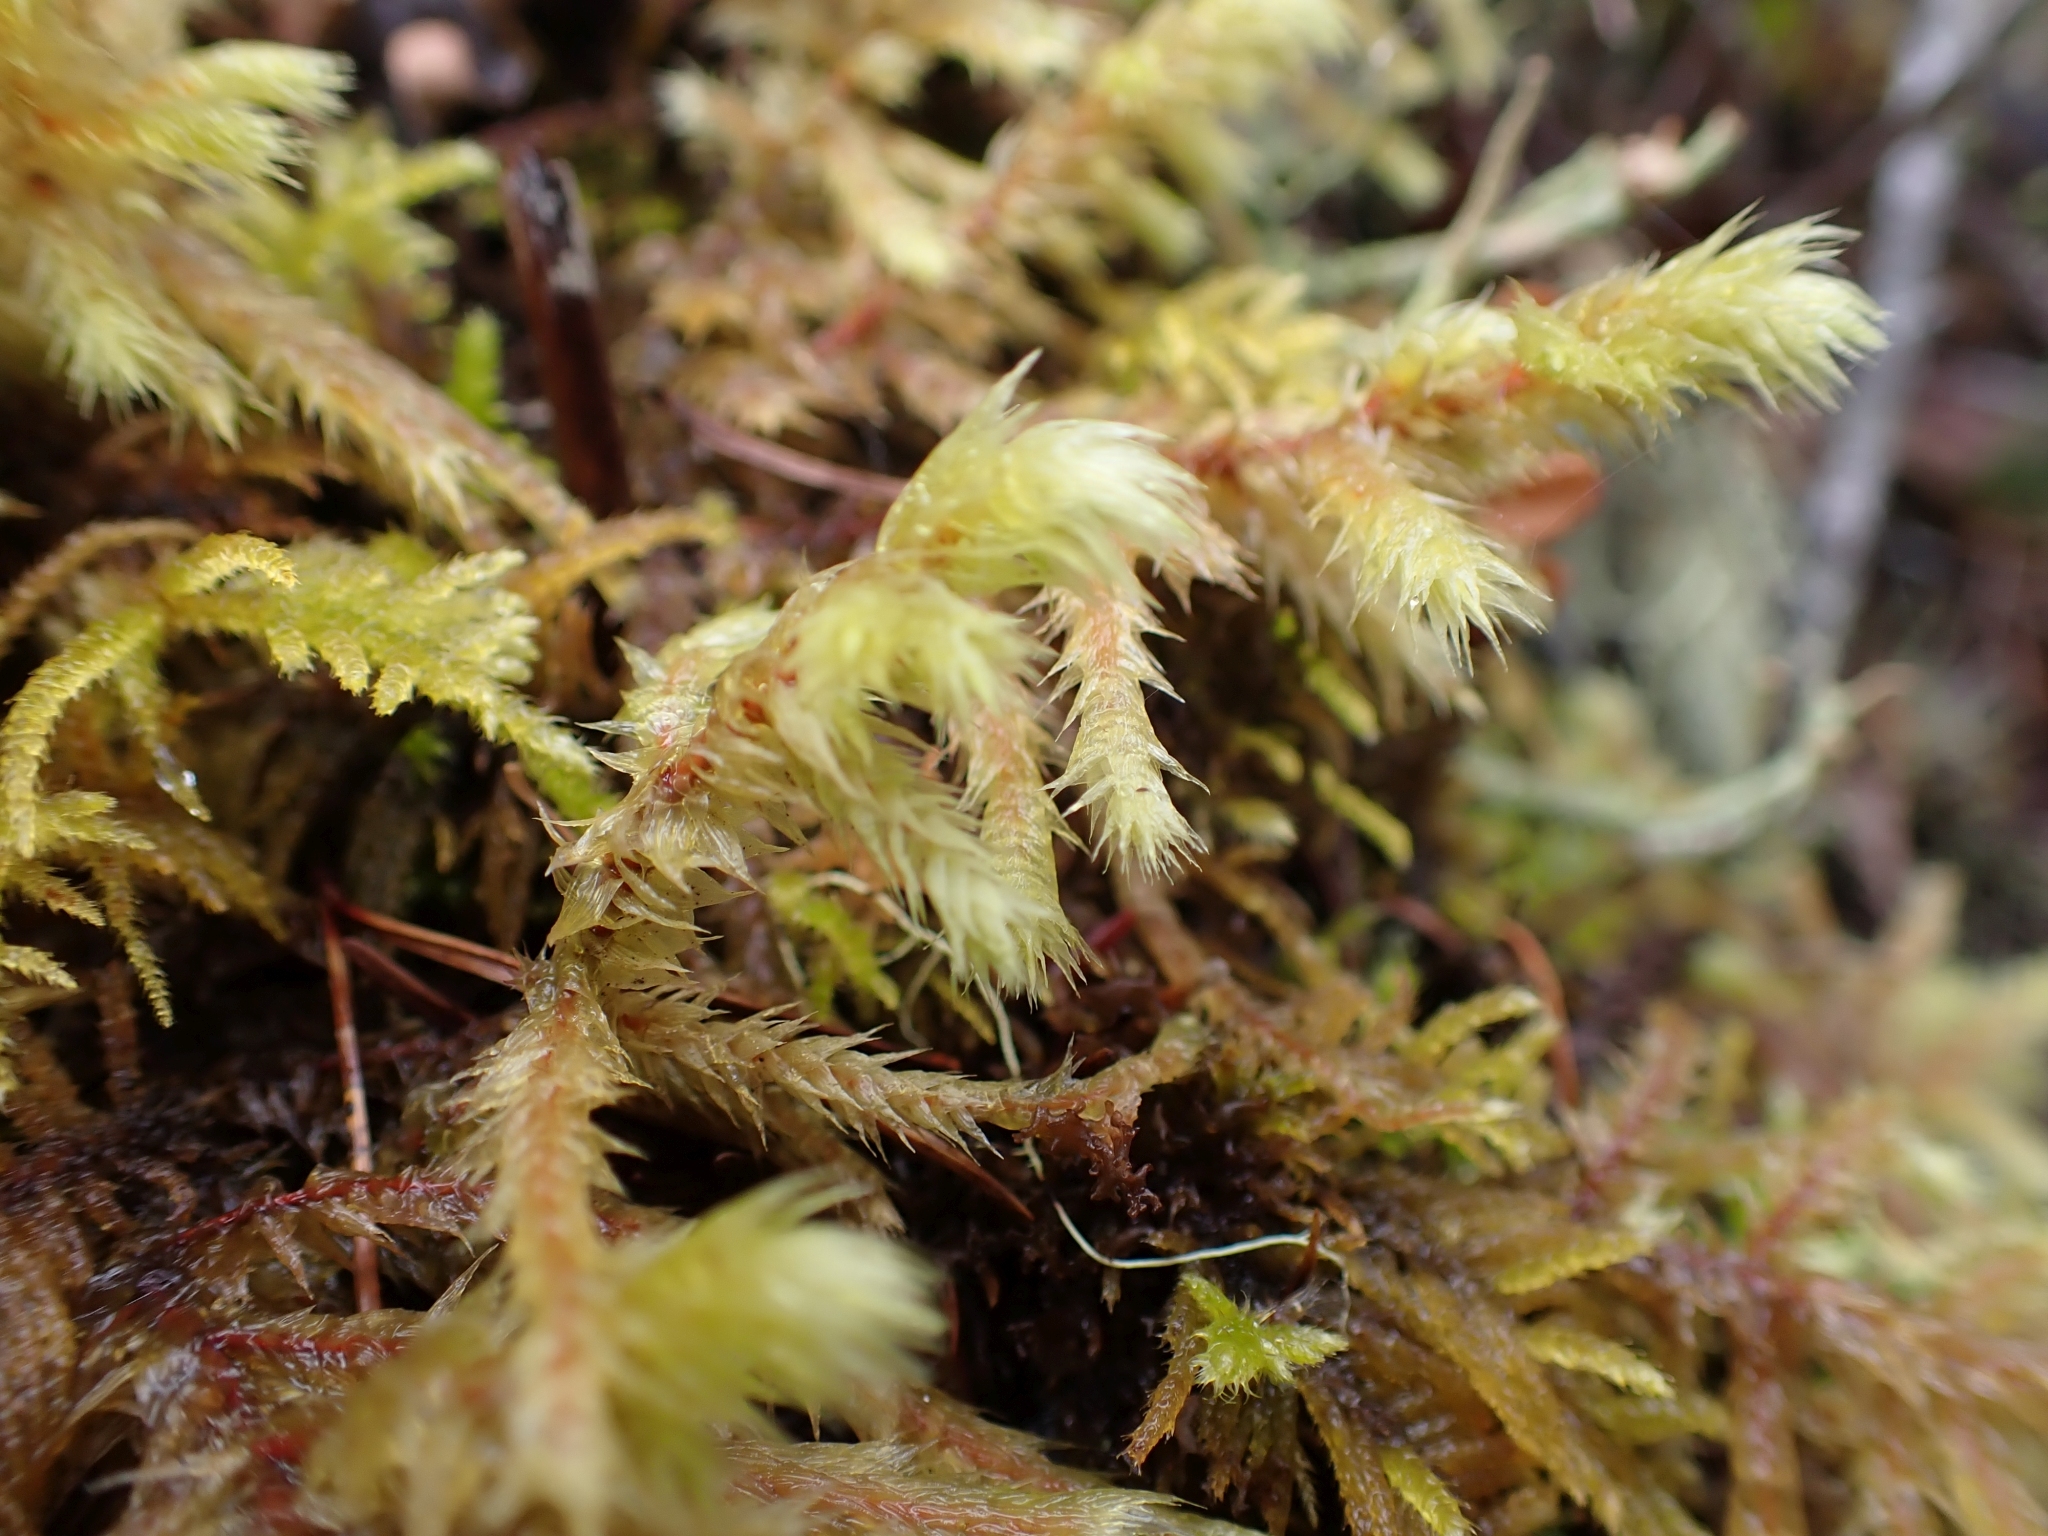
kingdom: Plantae
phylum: Bryophyta
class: Bryopsida
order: Hypnales
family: Hylocomiaceae
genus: Hylocomiadelphus
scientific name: Hylocomiadelphus triquetrus
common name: Rough goose neck moss
